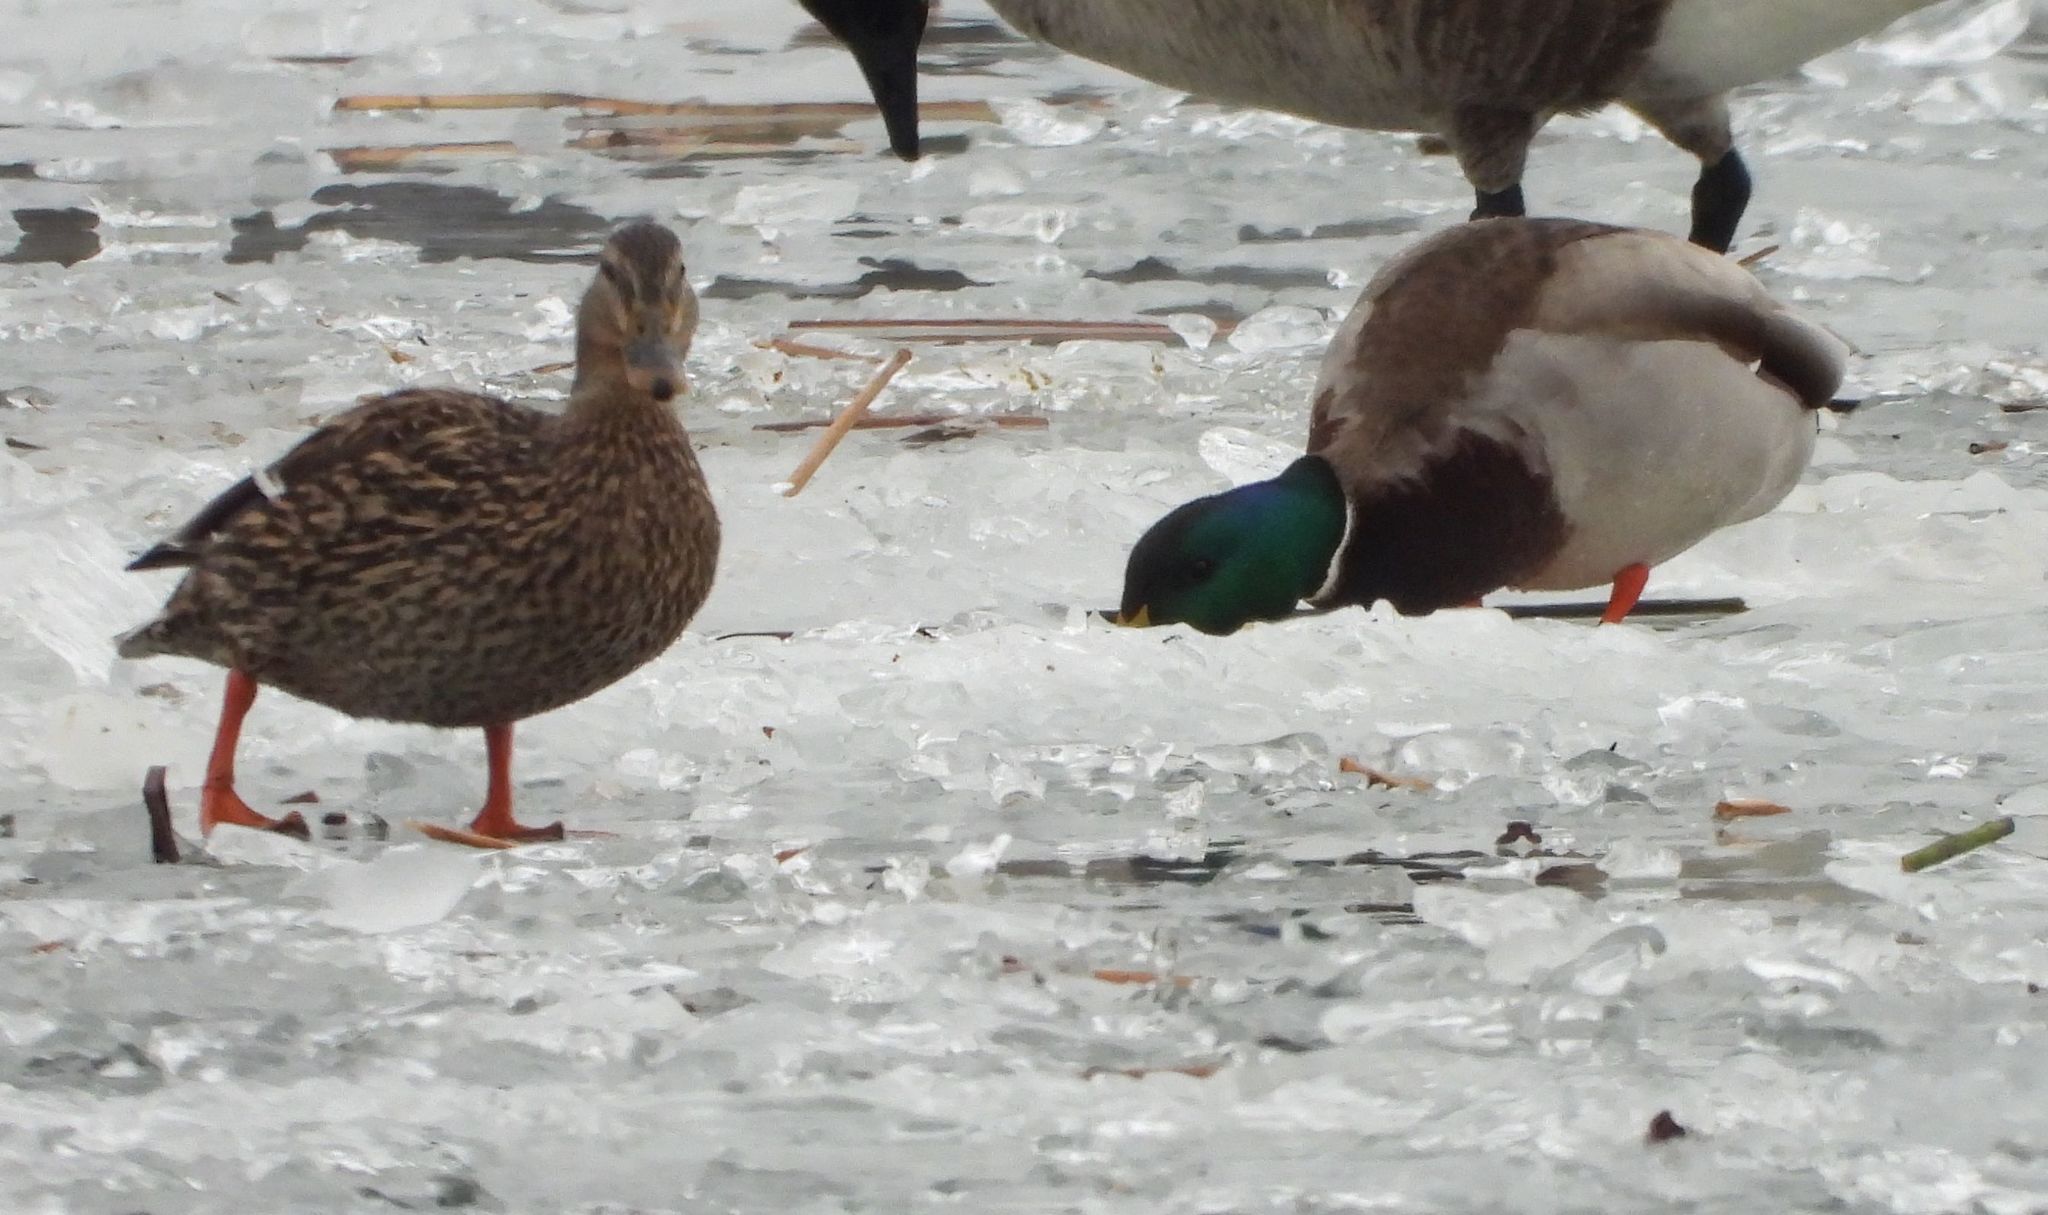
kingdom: Animalia
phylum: Chordata
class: Aves
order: Anseriformes
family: Anatidae
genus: Anas
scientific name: Anas platyrhynchos
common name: Mallard
